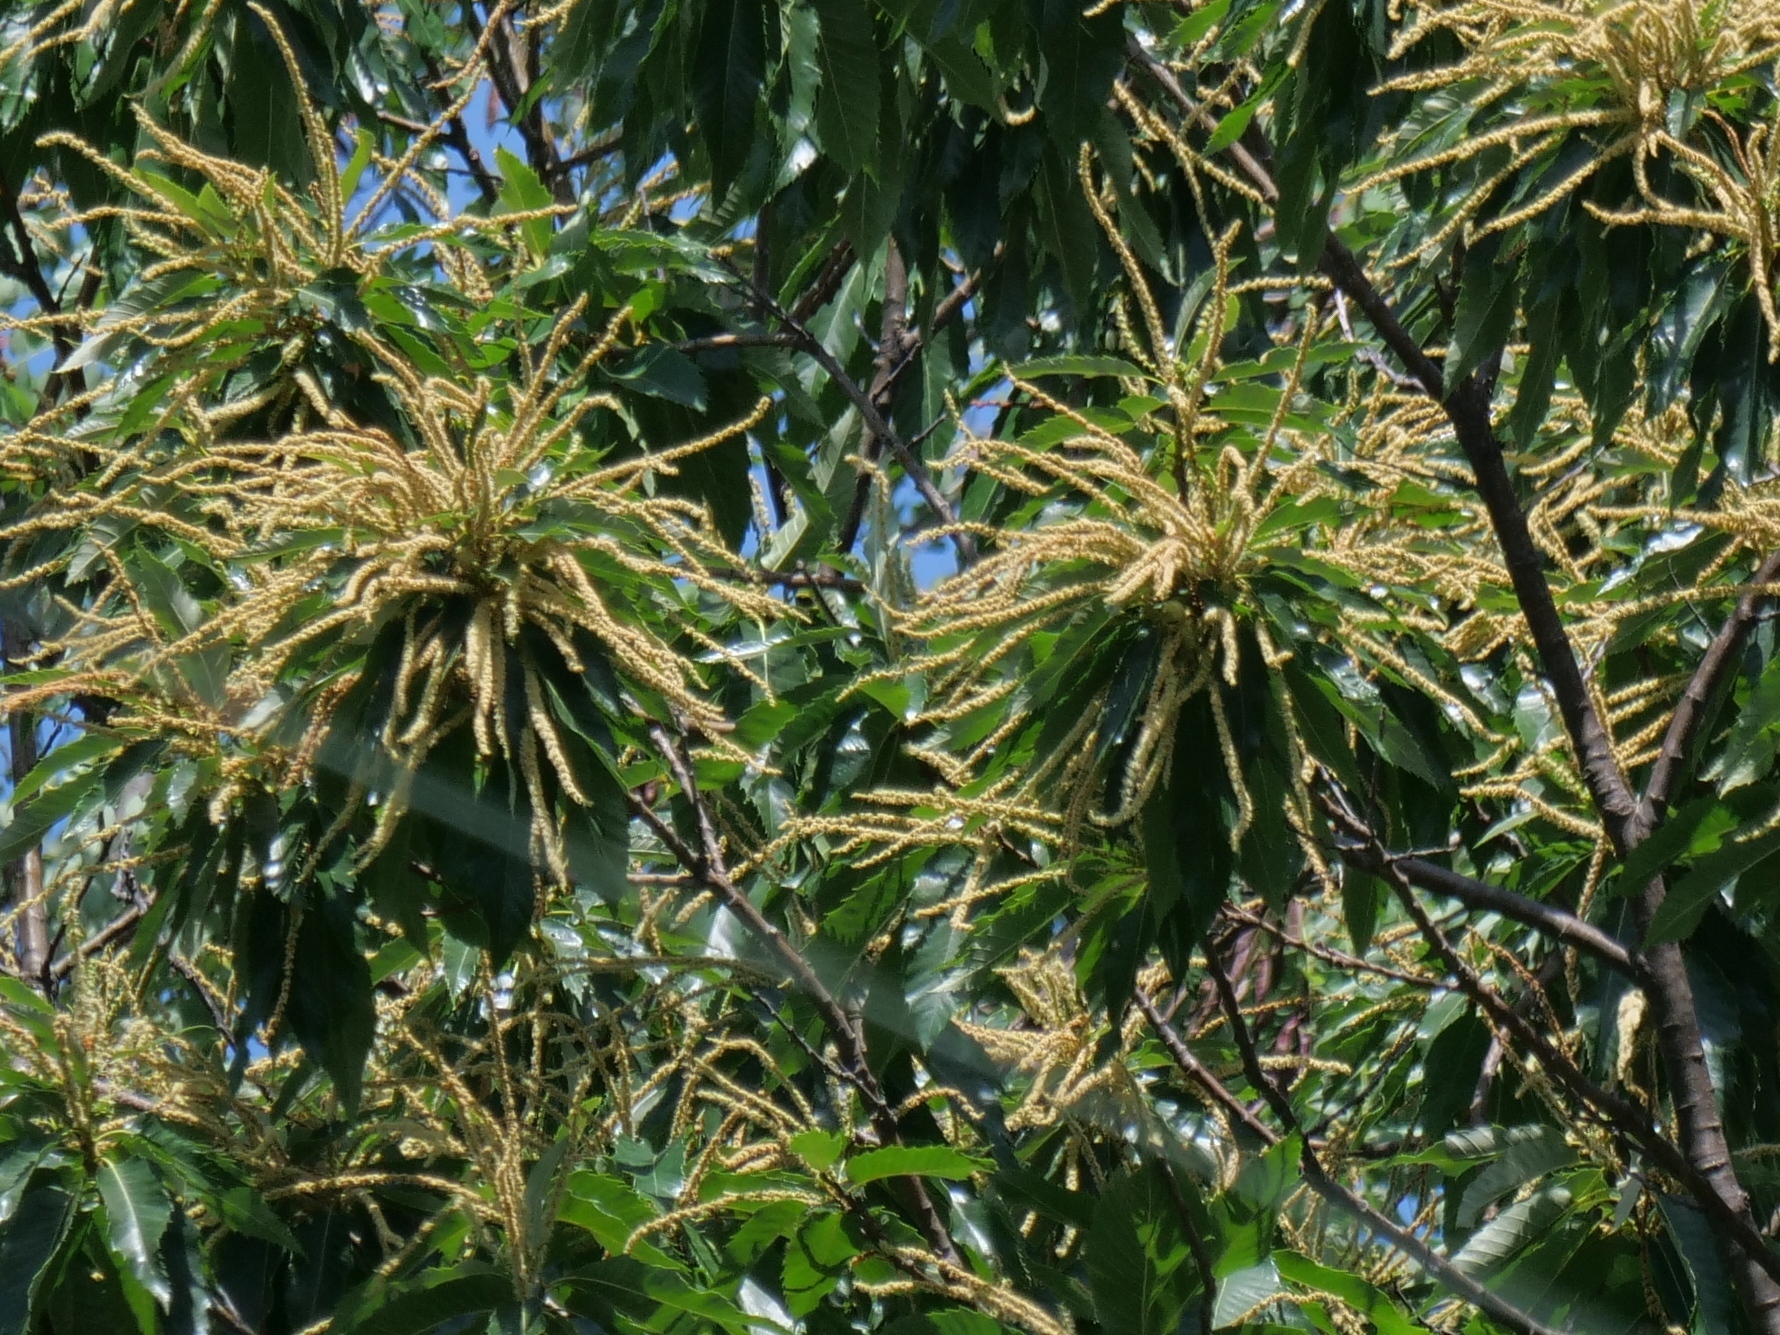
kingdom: Plantae
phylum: Tracheophyta
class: Magnoliopsida
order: Fagales
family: Fagaceae
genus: Castanea
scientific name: Castanea sativa
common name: Sweet chestnut
